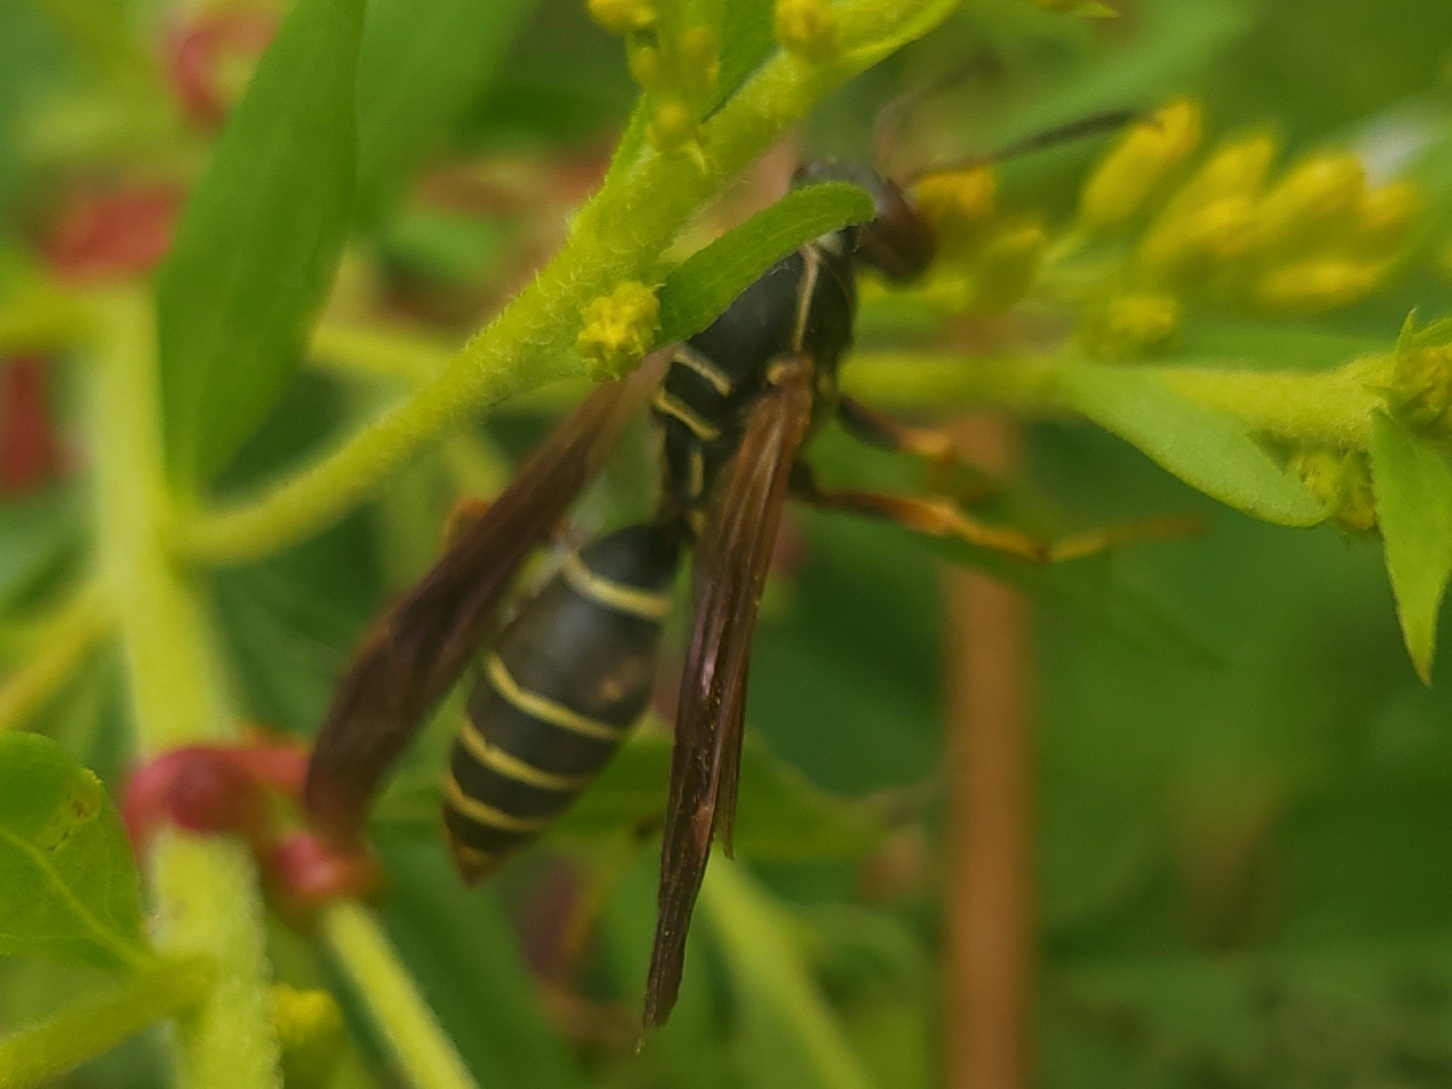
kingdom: Animalia
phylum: Arthropoda
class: Insecta
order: Hymenoptera
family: Eumenidae
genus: Polistes
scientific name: Polistes fuscatus
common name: Dark paper wasp
